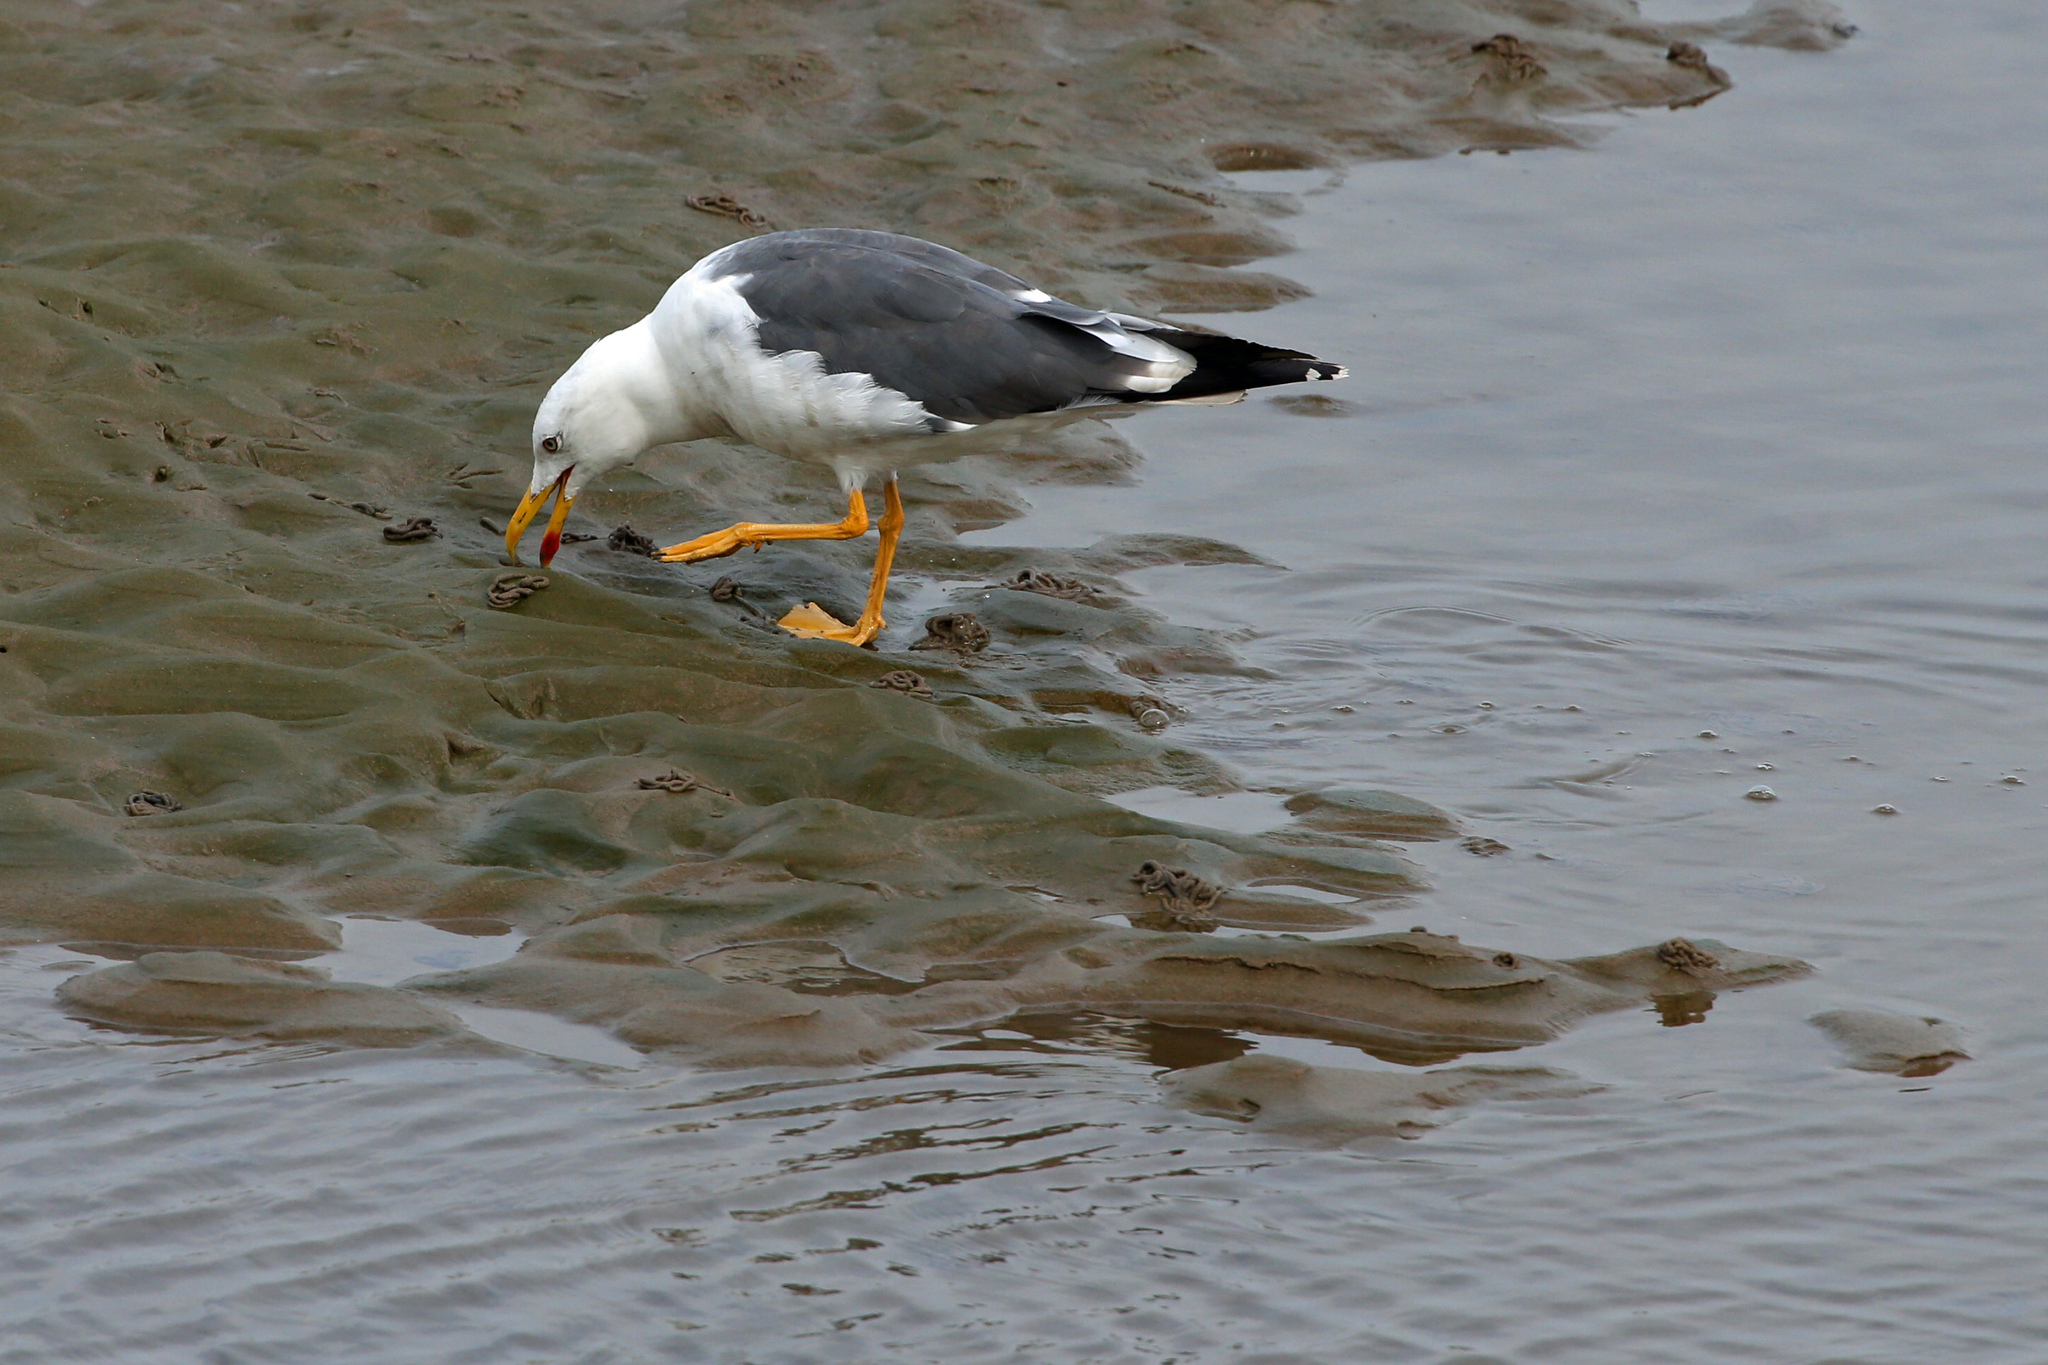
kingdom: Animalia
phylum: Chordata
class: Aves
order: Charadriiformes
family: Laridae
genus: Larus
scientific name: Larus fuscus
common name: Lesser black-backed gull
